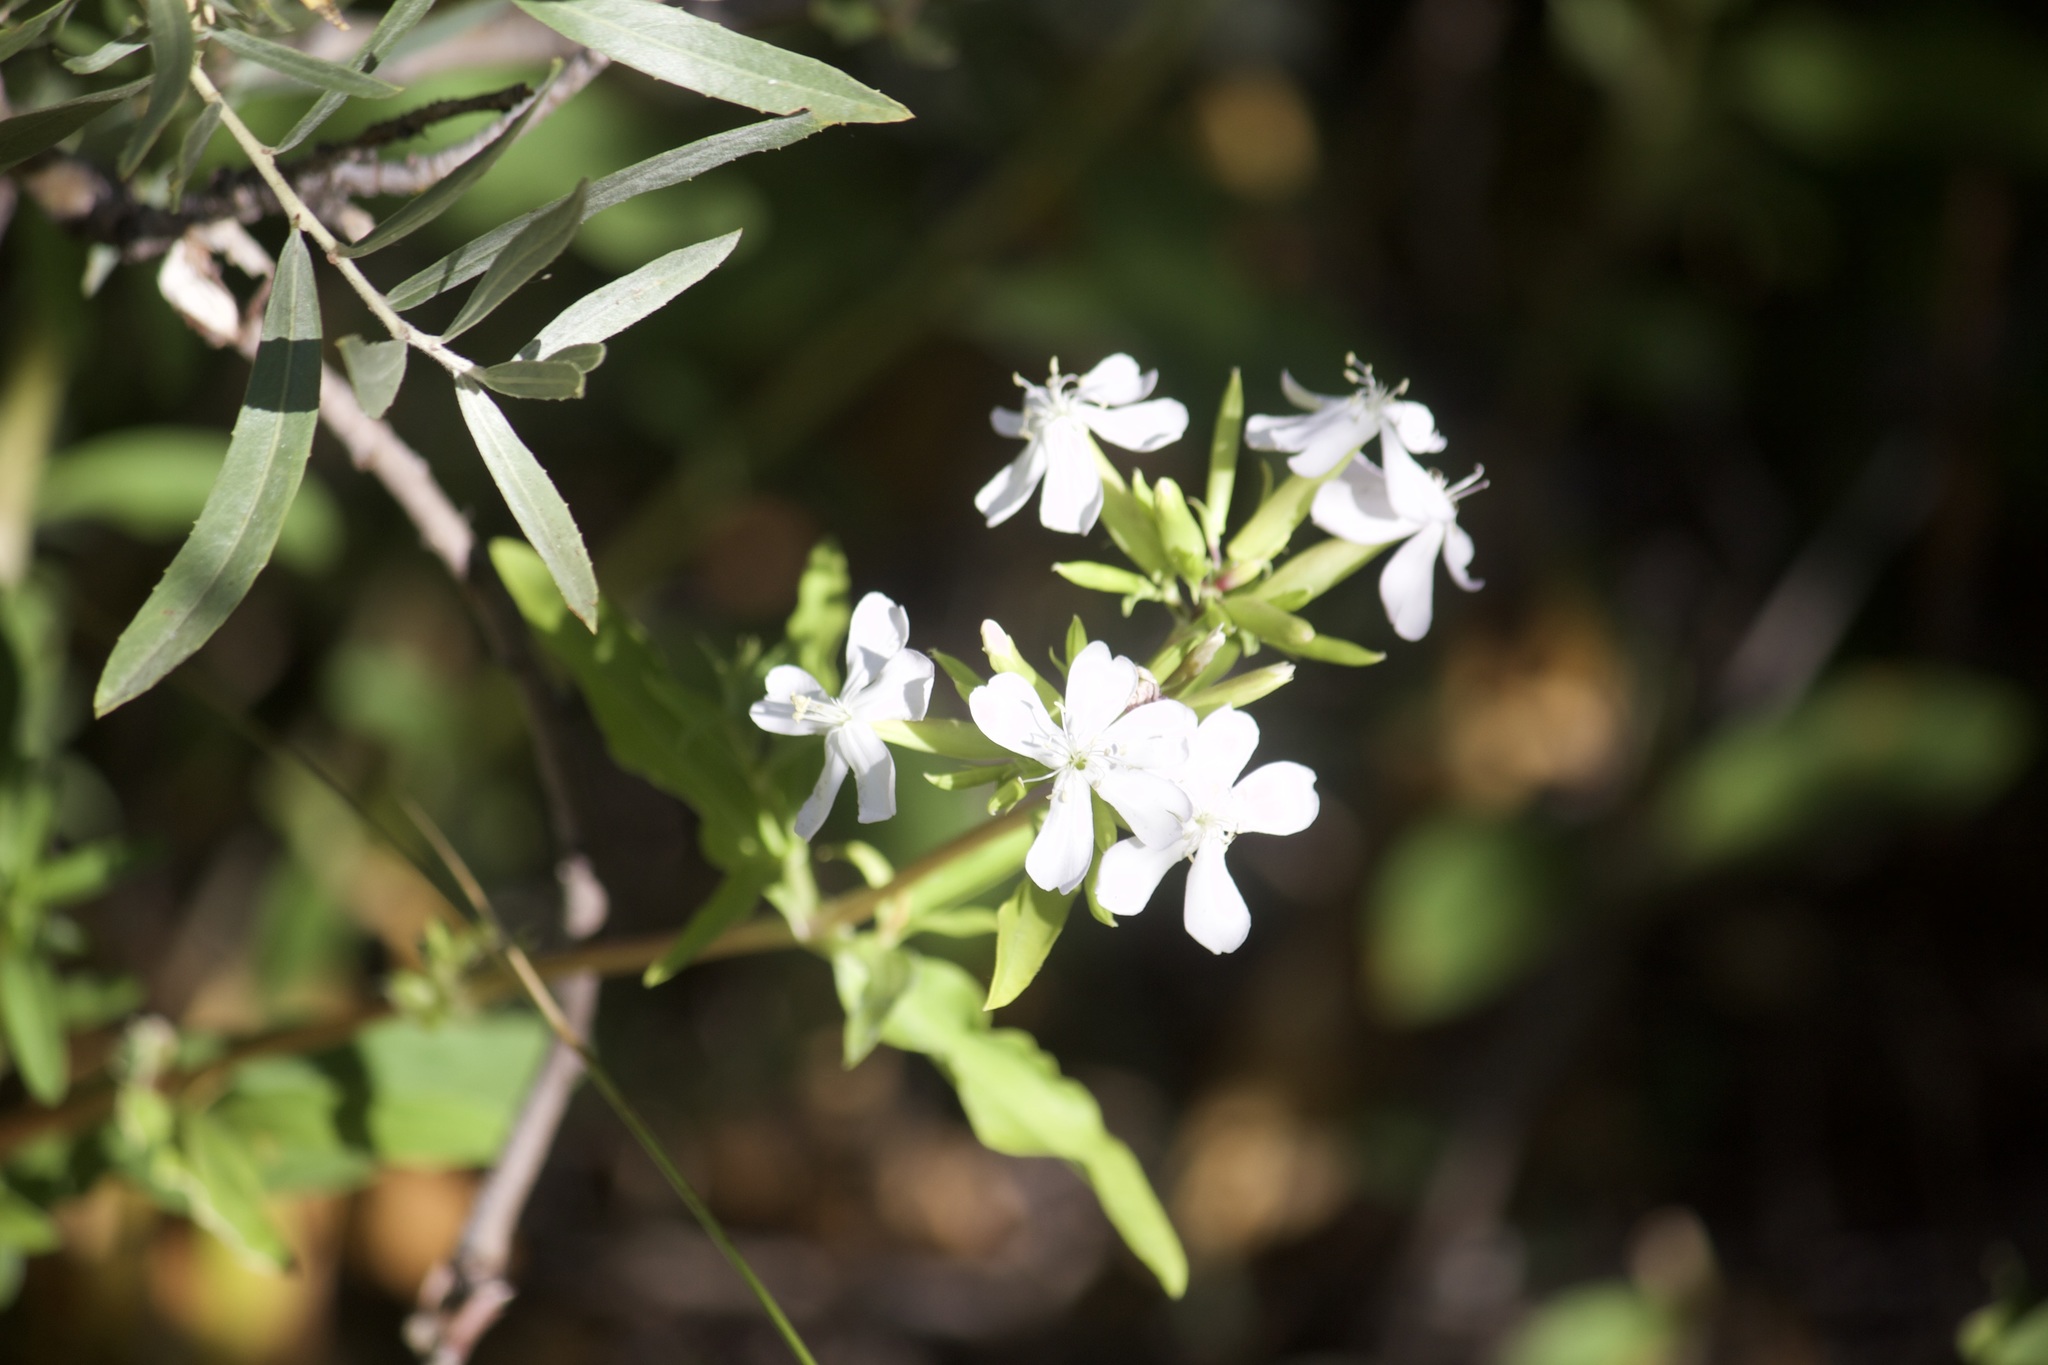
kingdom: Plantae
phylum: Tracheophyta
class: Magnoliopsida
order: Caryophyllales
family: Caryophyllaceae
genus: Saponaria
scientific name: Saponaria officinalis
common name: Soapwort
